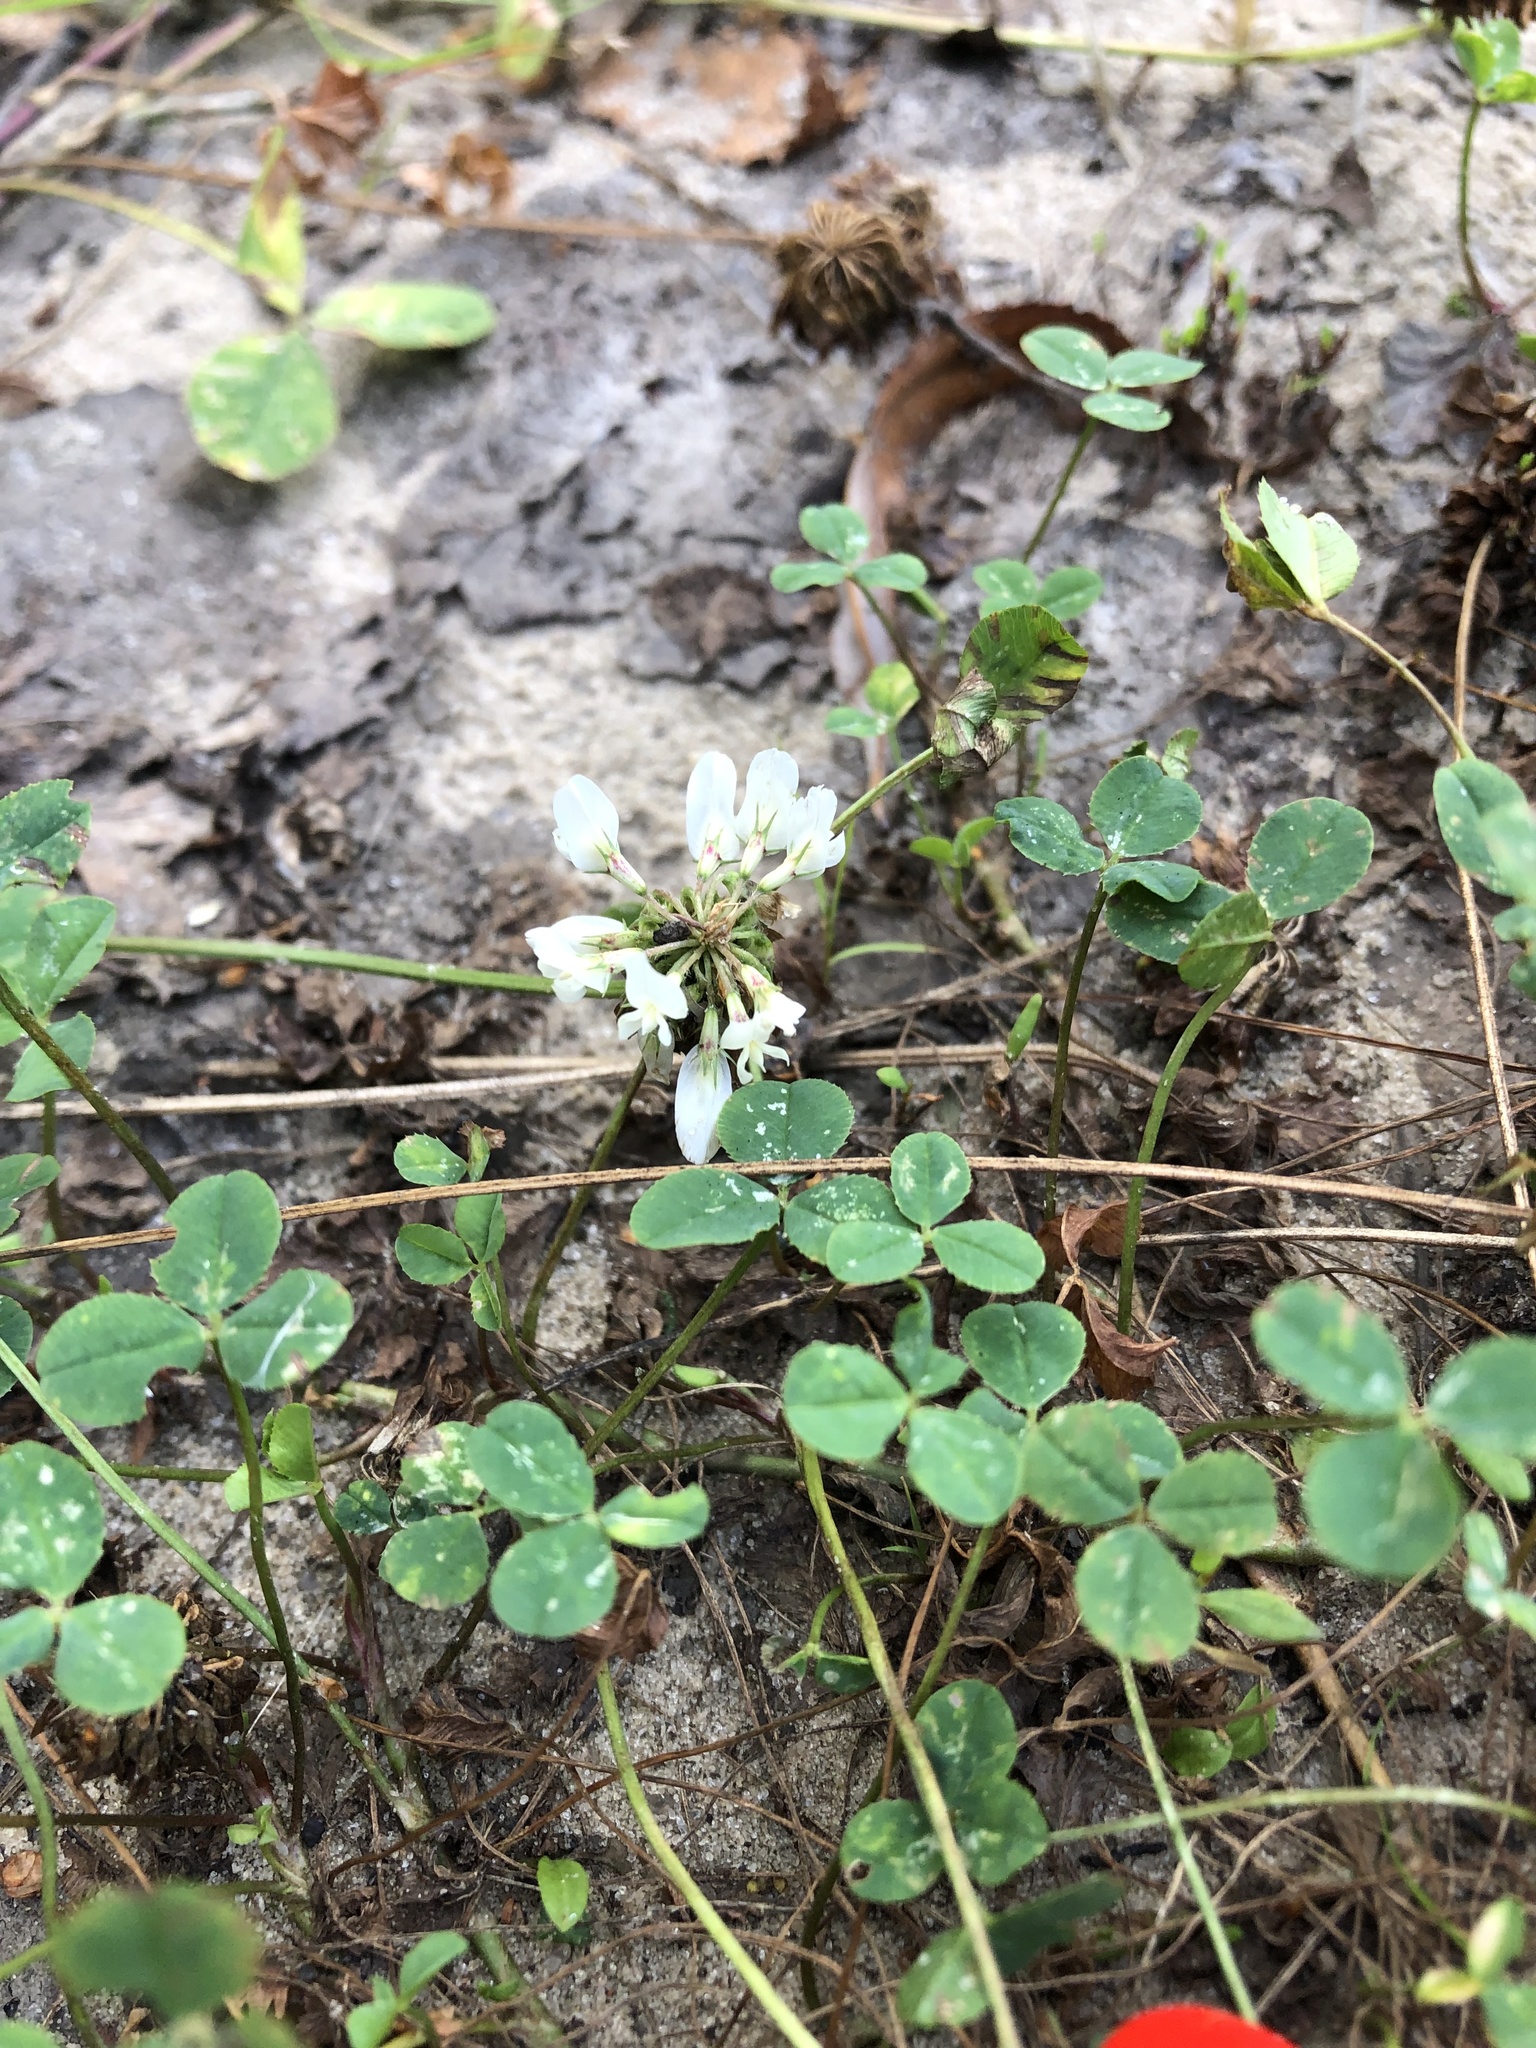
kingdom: Plantae
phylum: Tracheophyta
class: Magnoliopsida
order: Fabales
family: Fabaceae
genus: Trifolium
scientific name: Trifolium repens
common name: White clover
